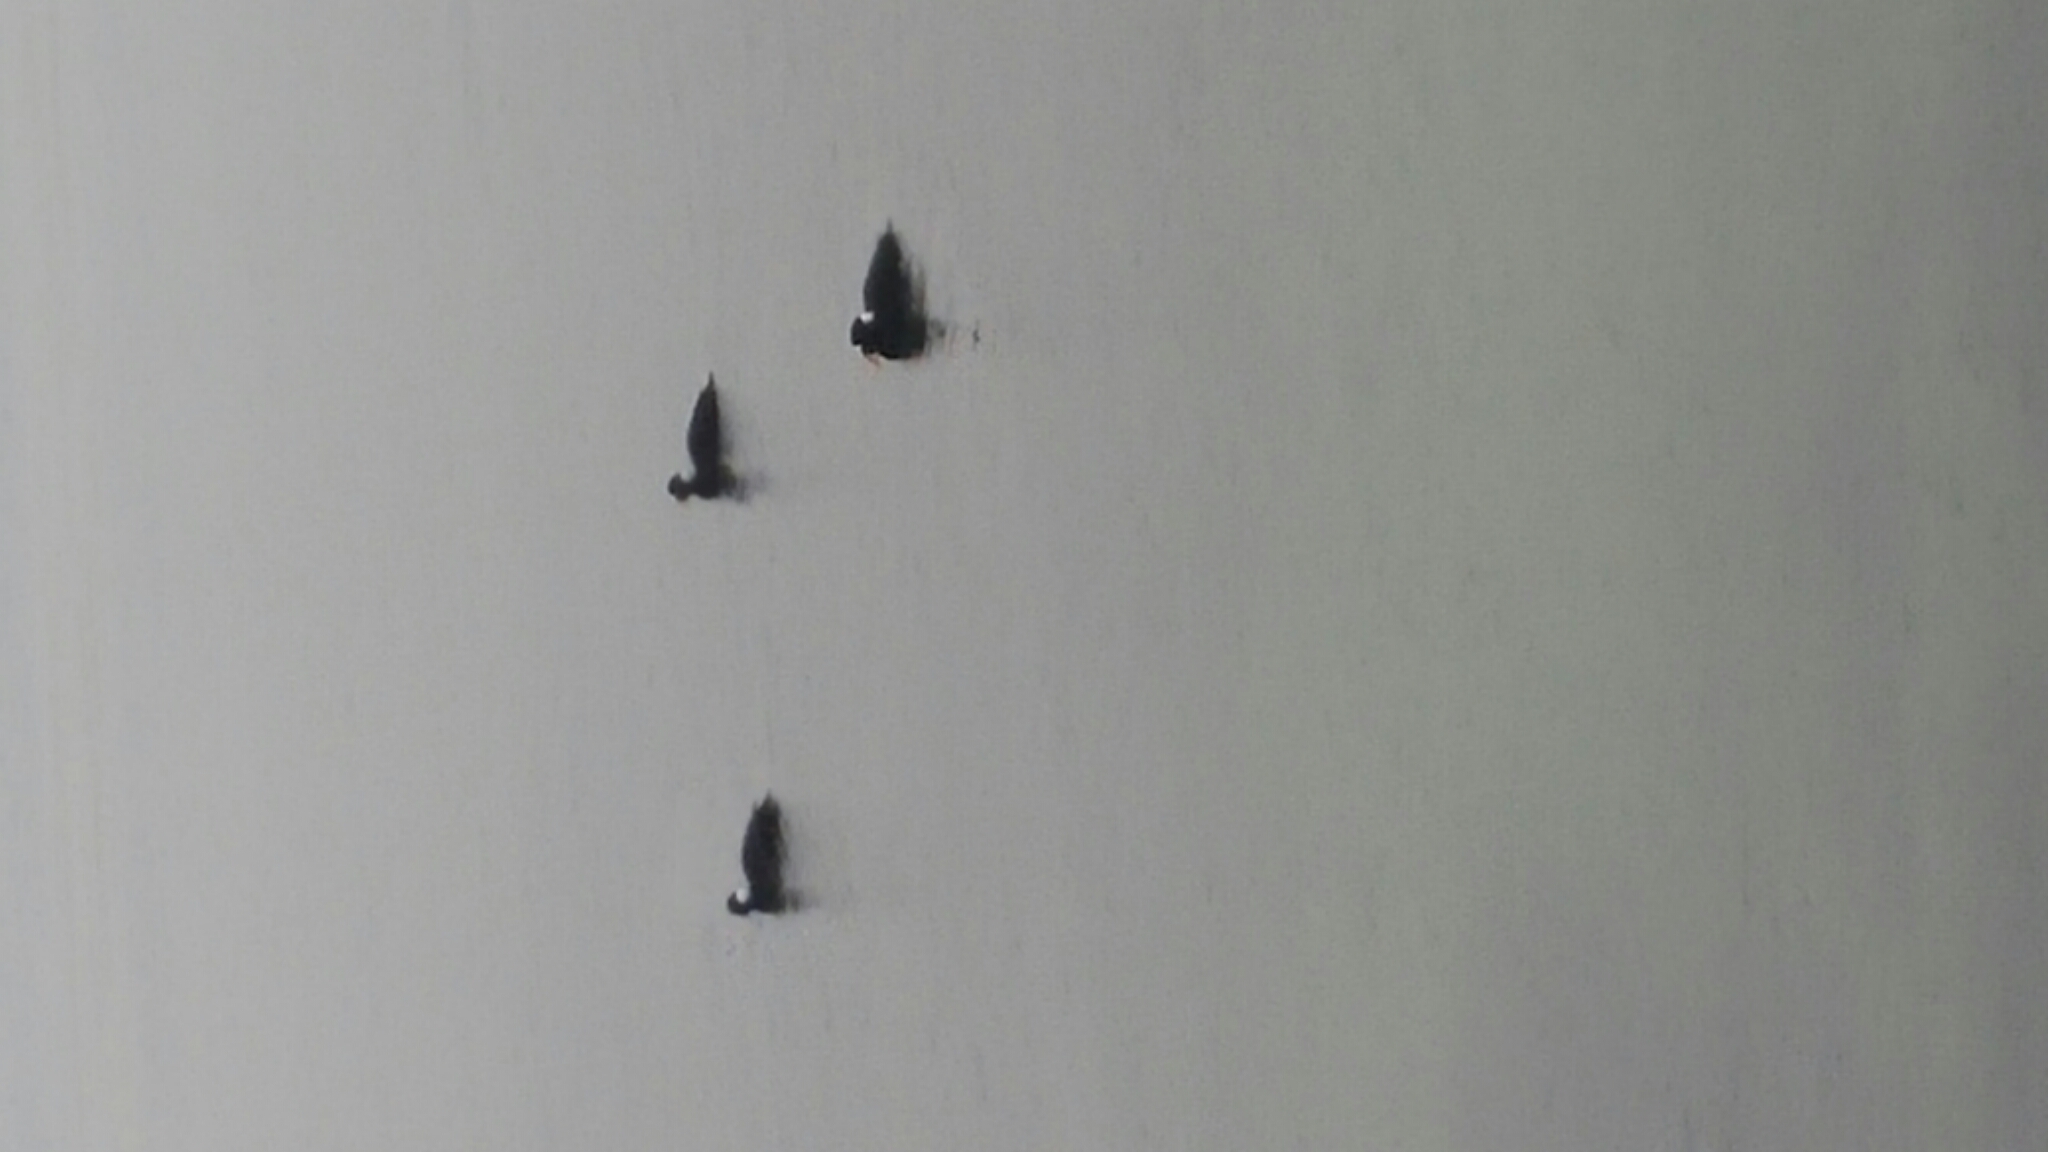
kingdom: Animalia
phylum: Chordata
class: Aves
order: Anseriformes
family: Anatidae
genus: Melanitta
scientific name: Melanitta perspicillata
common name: Surf scoter
